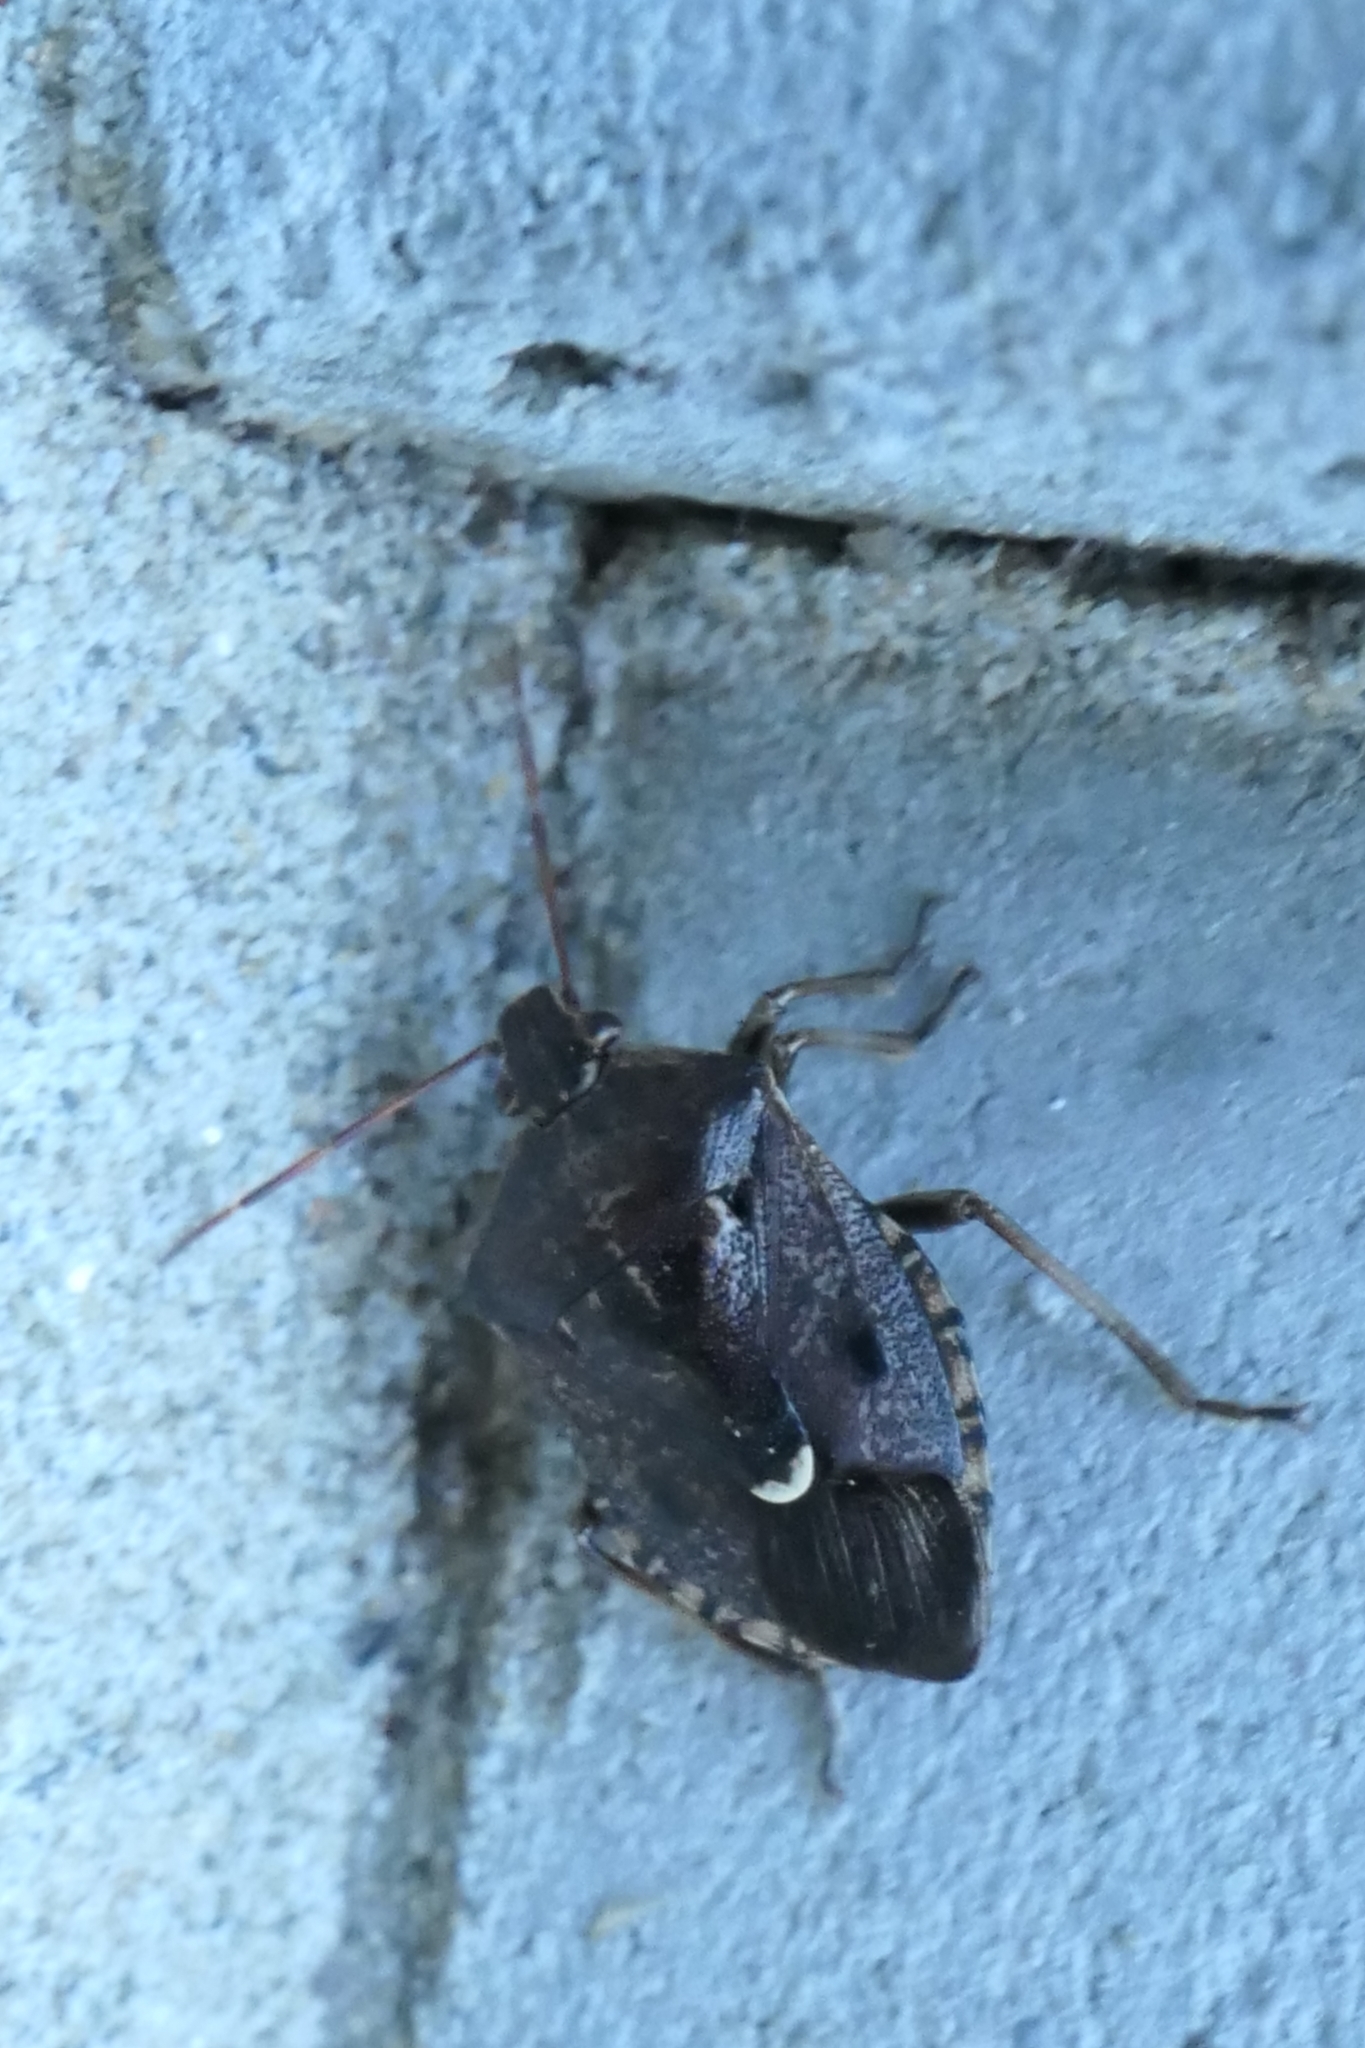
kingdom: Animalia
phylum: Arthropoda
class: Insecta
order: Hemiptera
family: Pentatomidae
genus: Cermatulus
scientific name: Cermatulus nasalis
